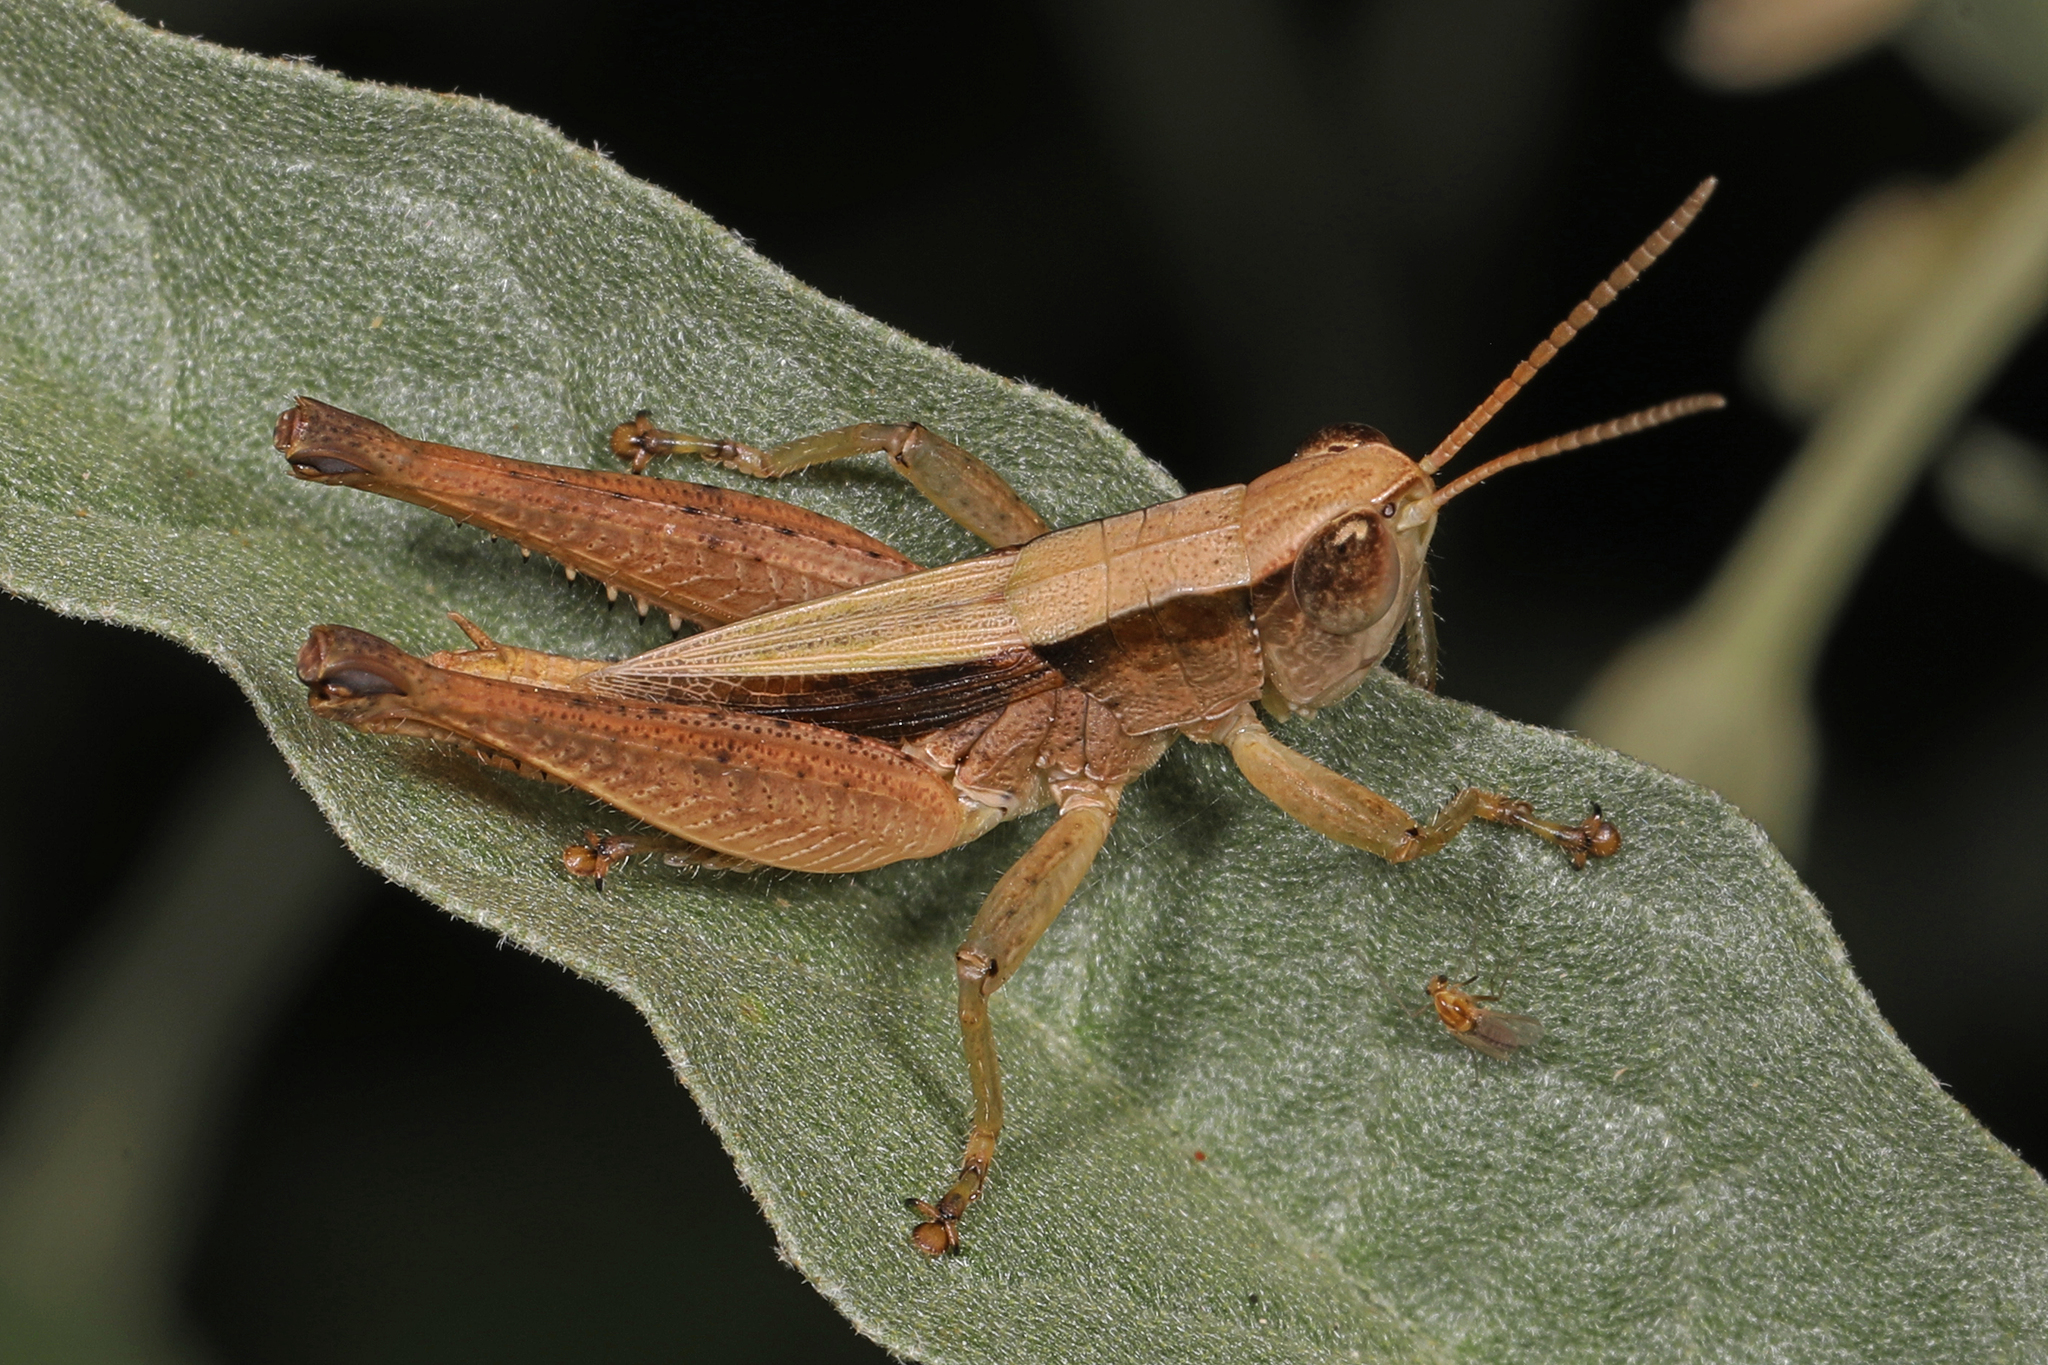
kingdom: Animalia
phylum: Arthropoda
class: Insecta
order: Orthoptera
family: Acrididae
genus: Dichromorpha
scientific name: Dichromorpha viridis
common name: Short-winged green grasshopper
